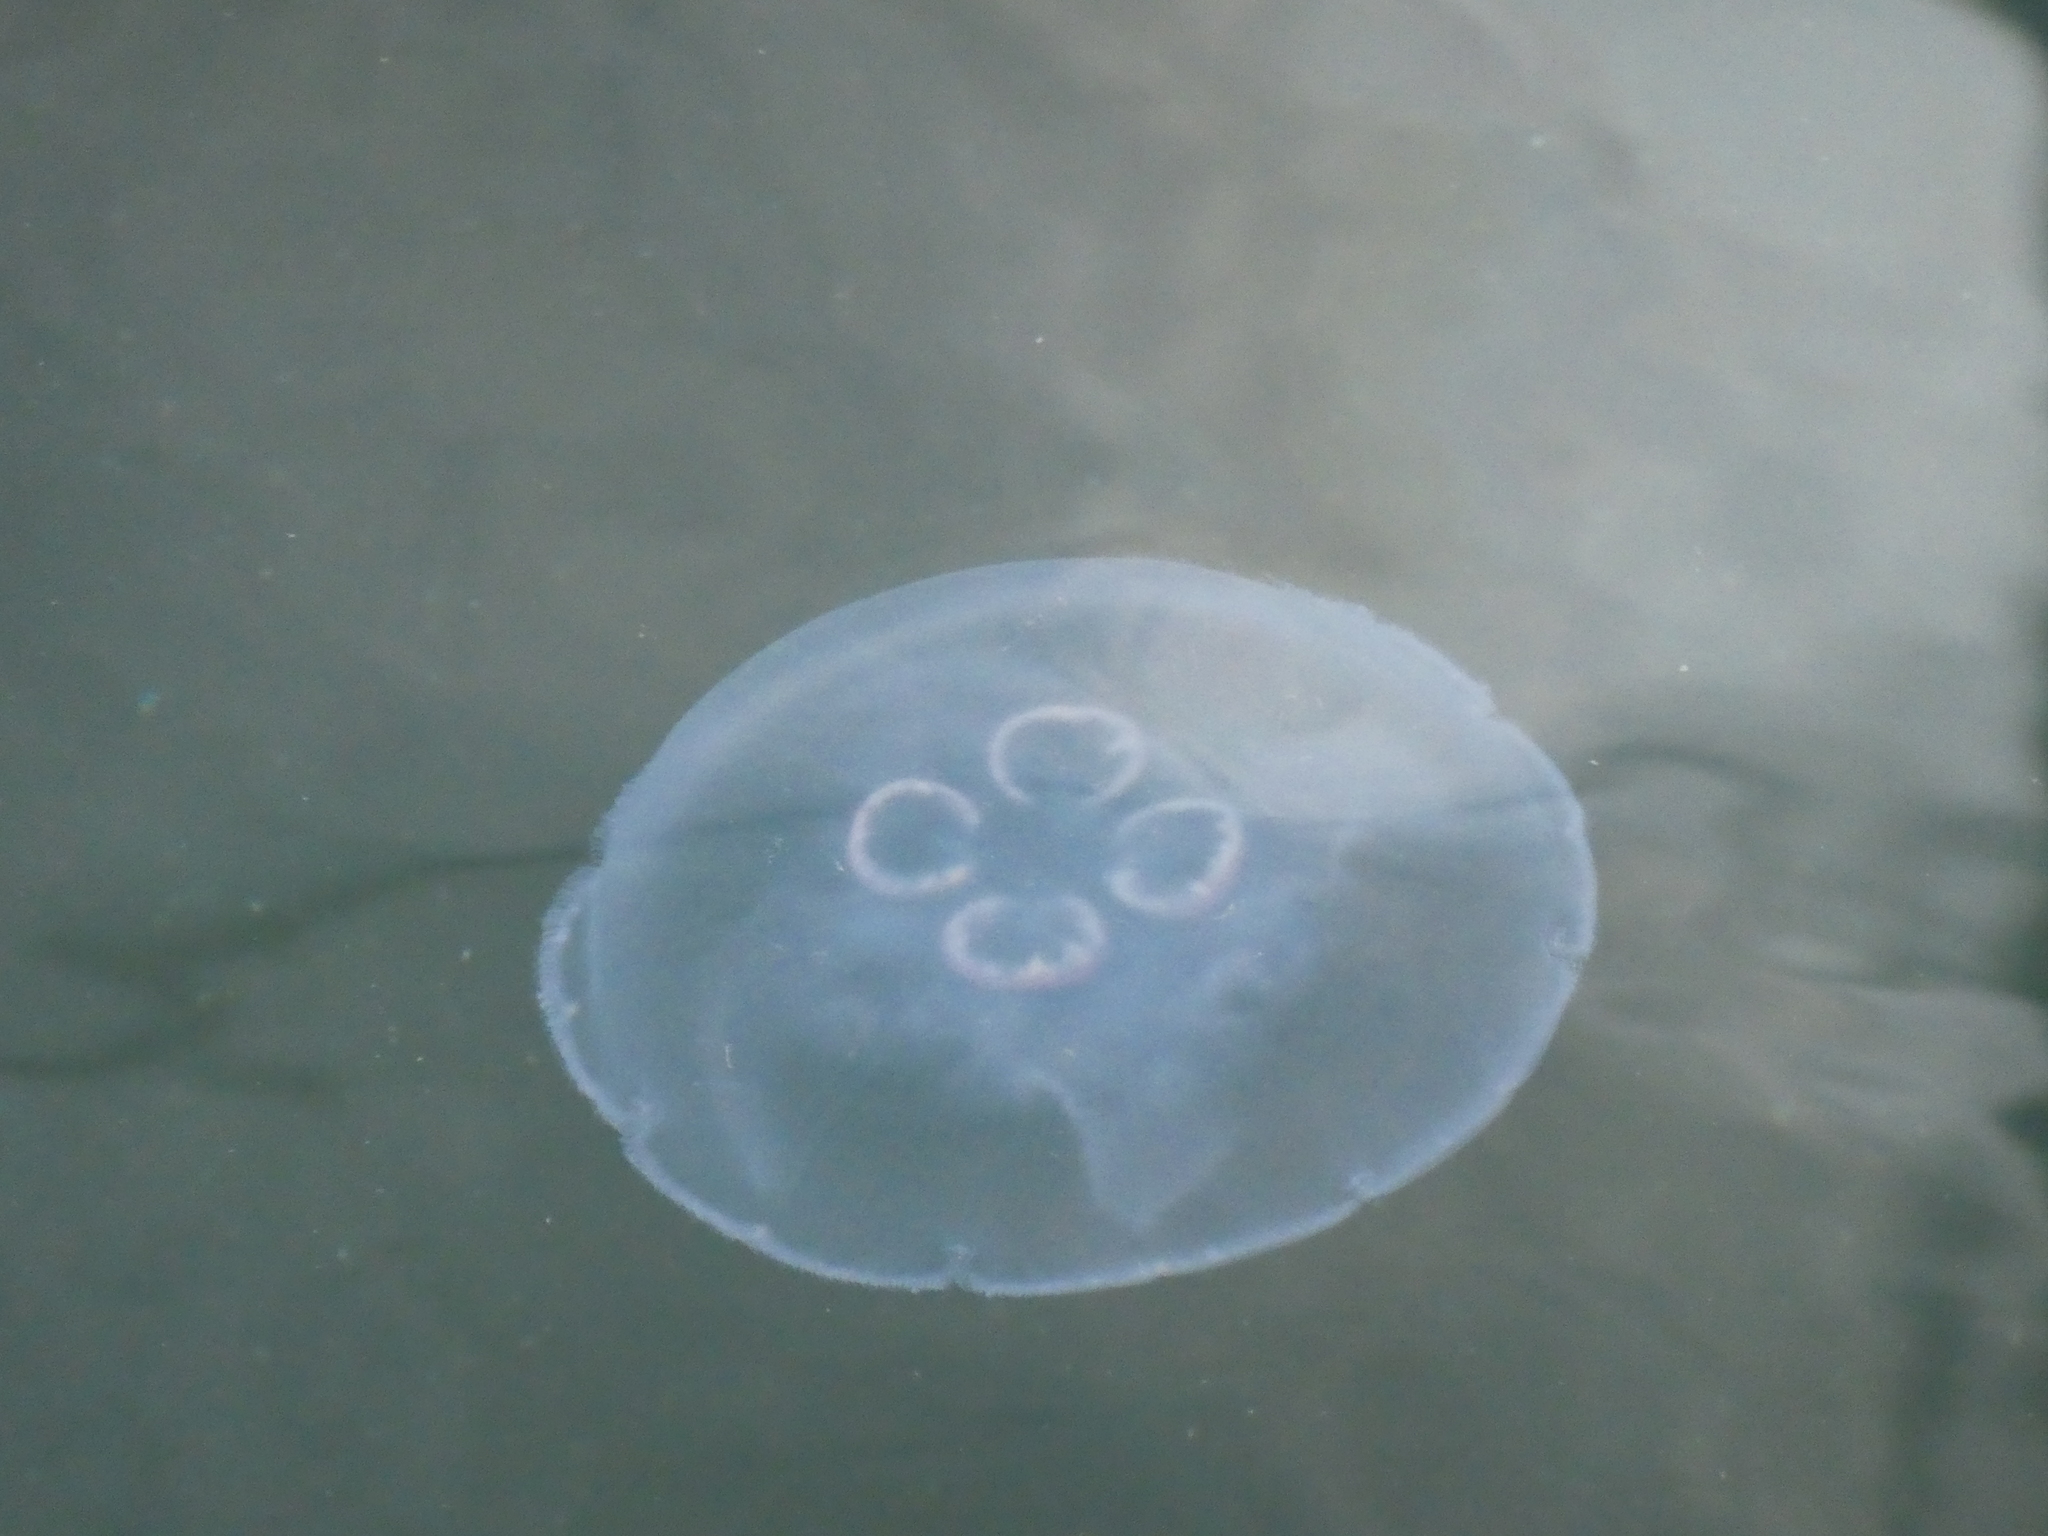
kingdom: Animalia
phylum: Cnidaria
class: Scyphozoa
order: Semaeostomeae
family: Ulmaridae
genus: Aurelia
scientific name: Aurelia labiata
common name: Pacific moon jelly
